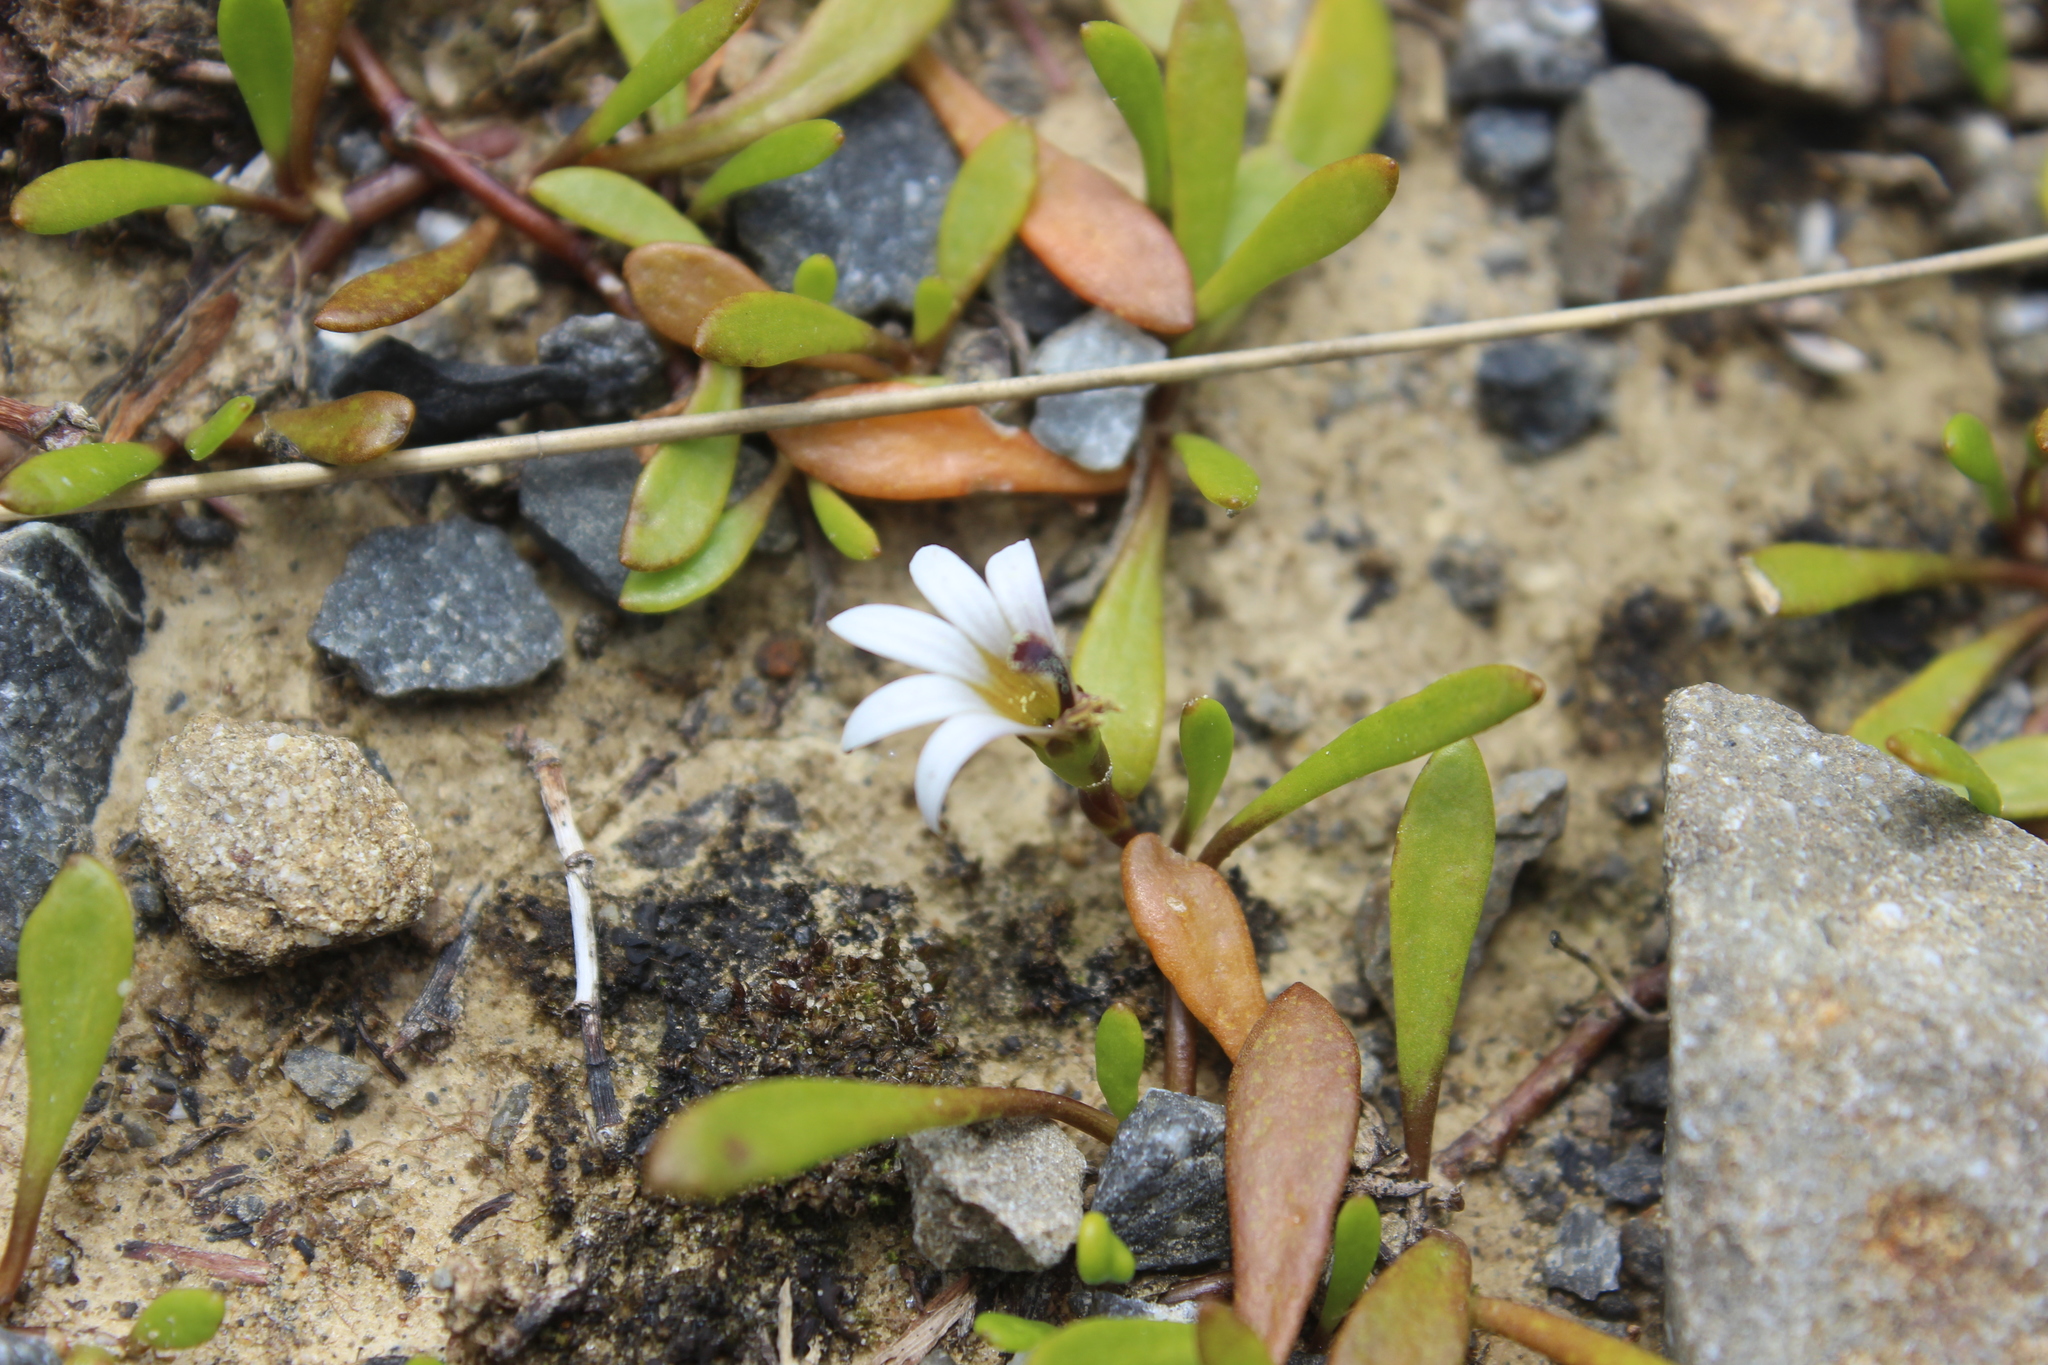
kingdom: Plantae
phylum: Tracheophyta
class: Magnoliopsida
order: Asterales
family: Goodeniaceae
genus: Goodenia
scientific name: Goodenia radicans
